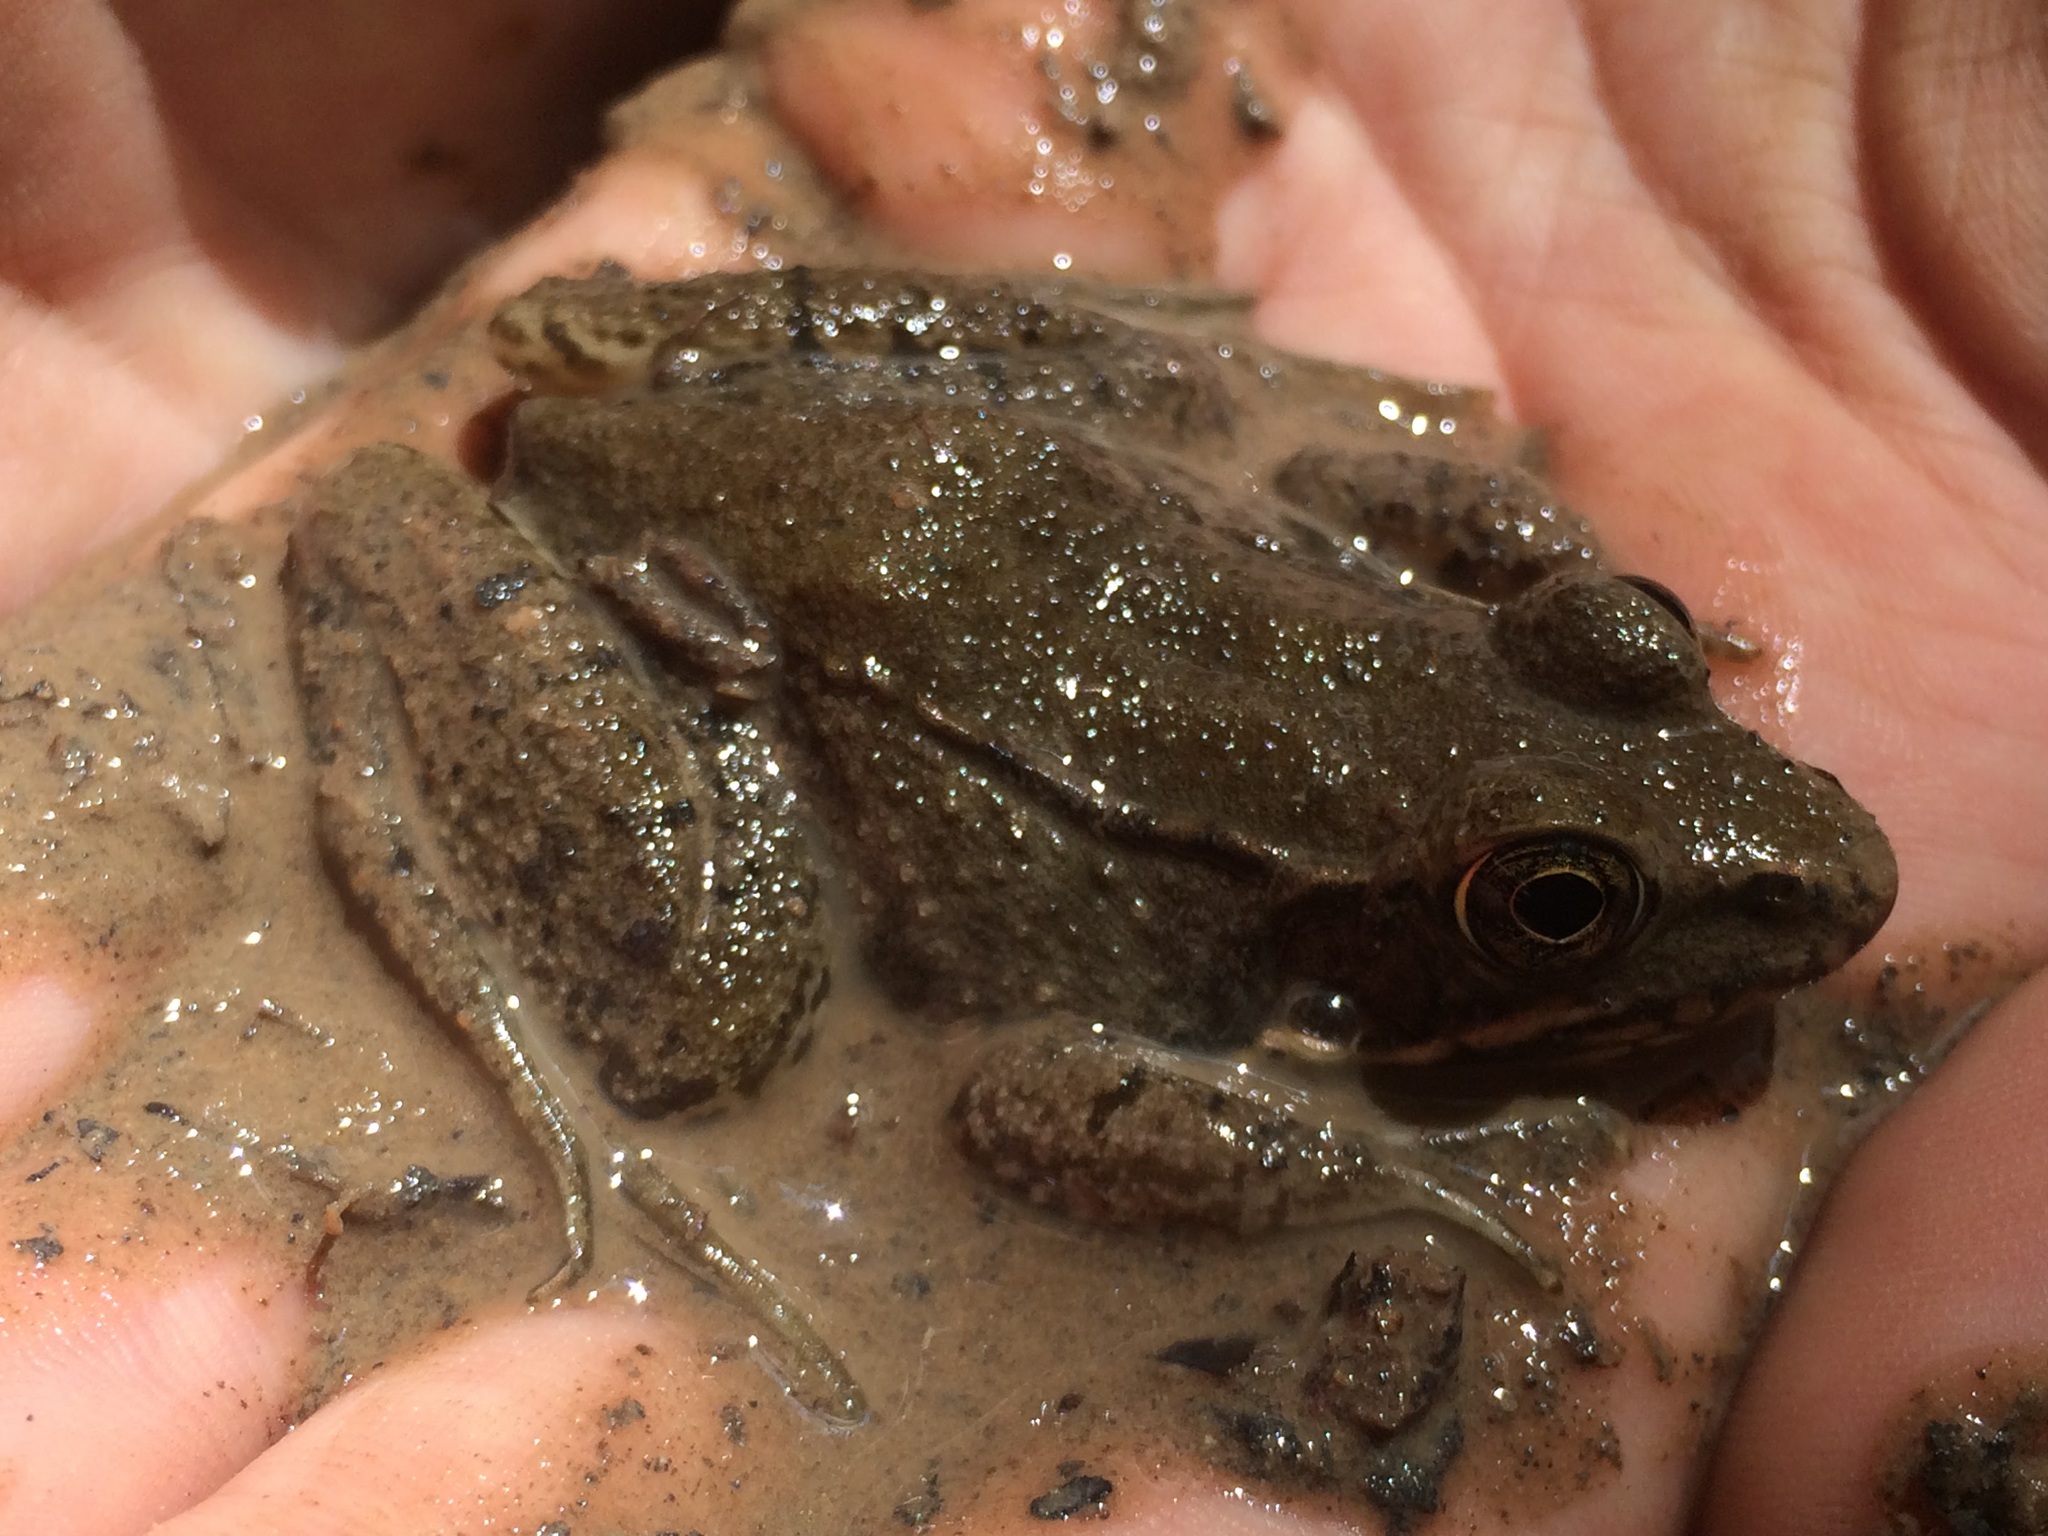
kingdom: Animalia
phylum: Chordata
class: Amphibia
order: Anura
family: Ranidae
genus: Lithobates
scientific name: Lithobates clamitans
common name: Green frog
